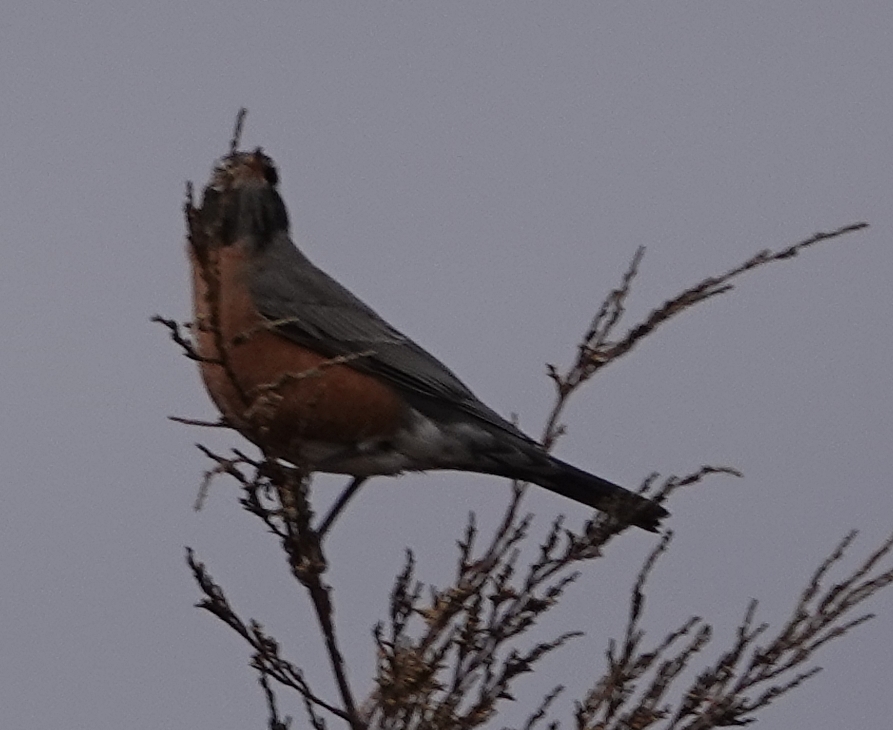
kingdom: Animalia
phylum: Chordata
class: Aves
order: Passeriformes
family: Turdidae
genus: Turdus
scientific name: Turdus migratorius
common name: American robin
